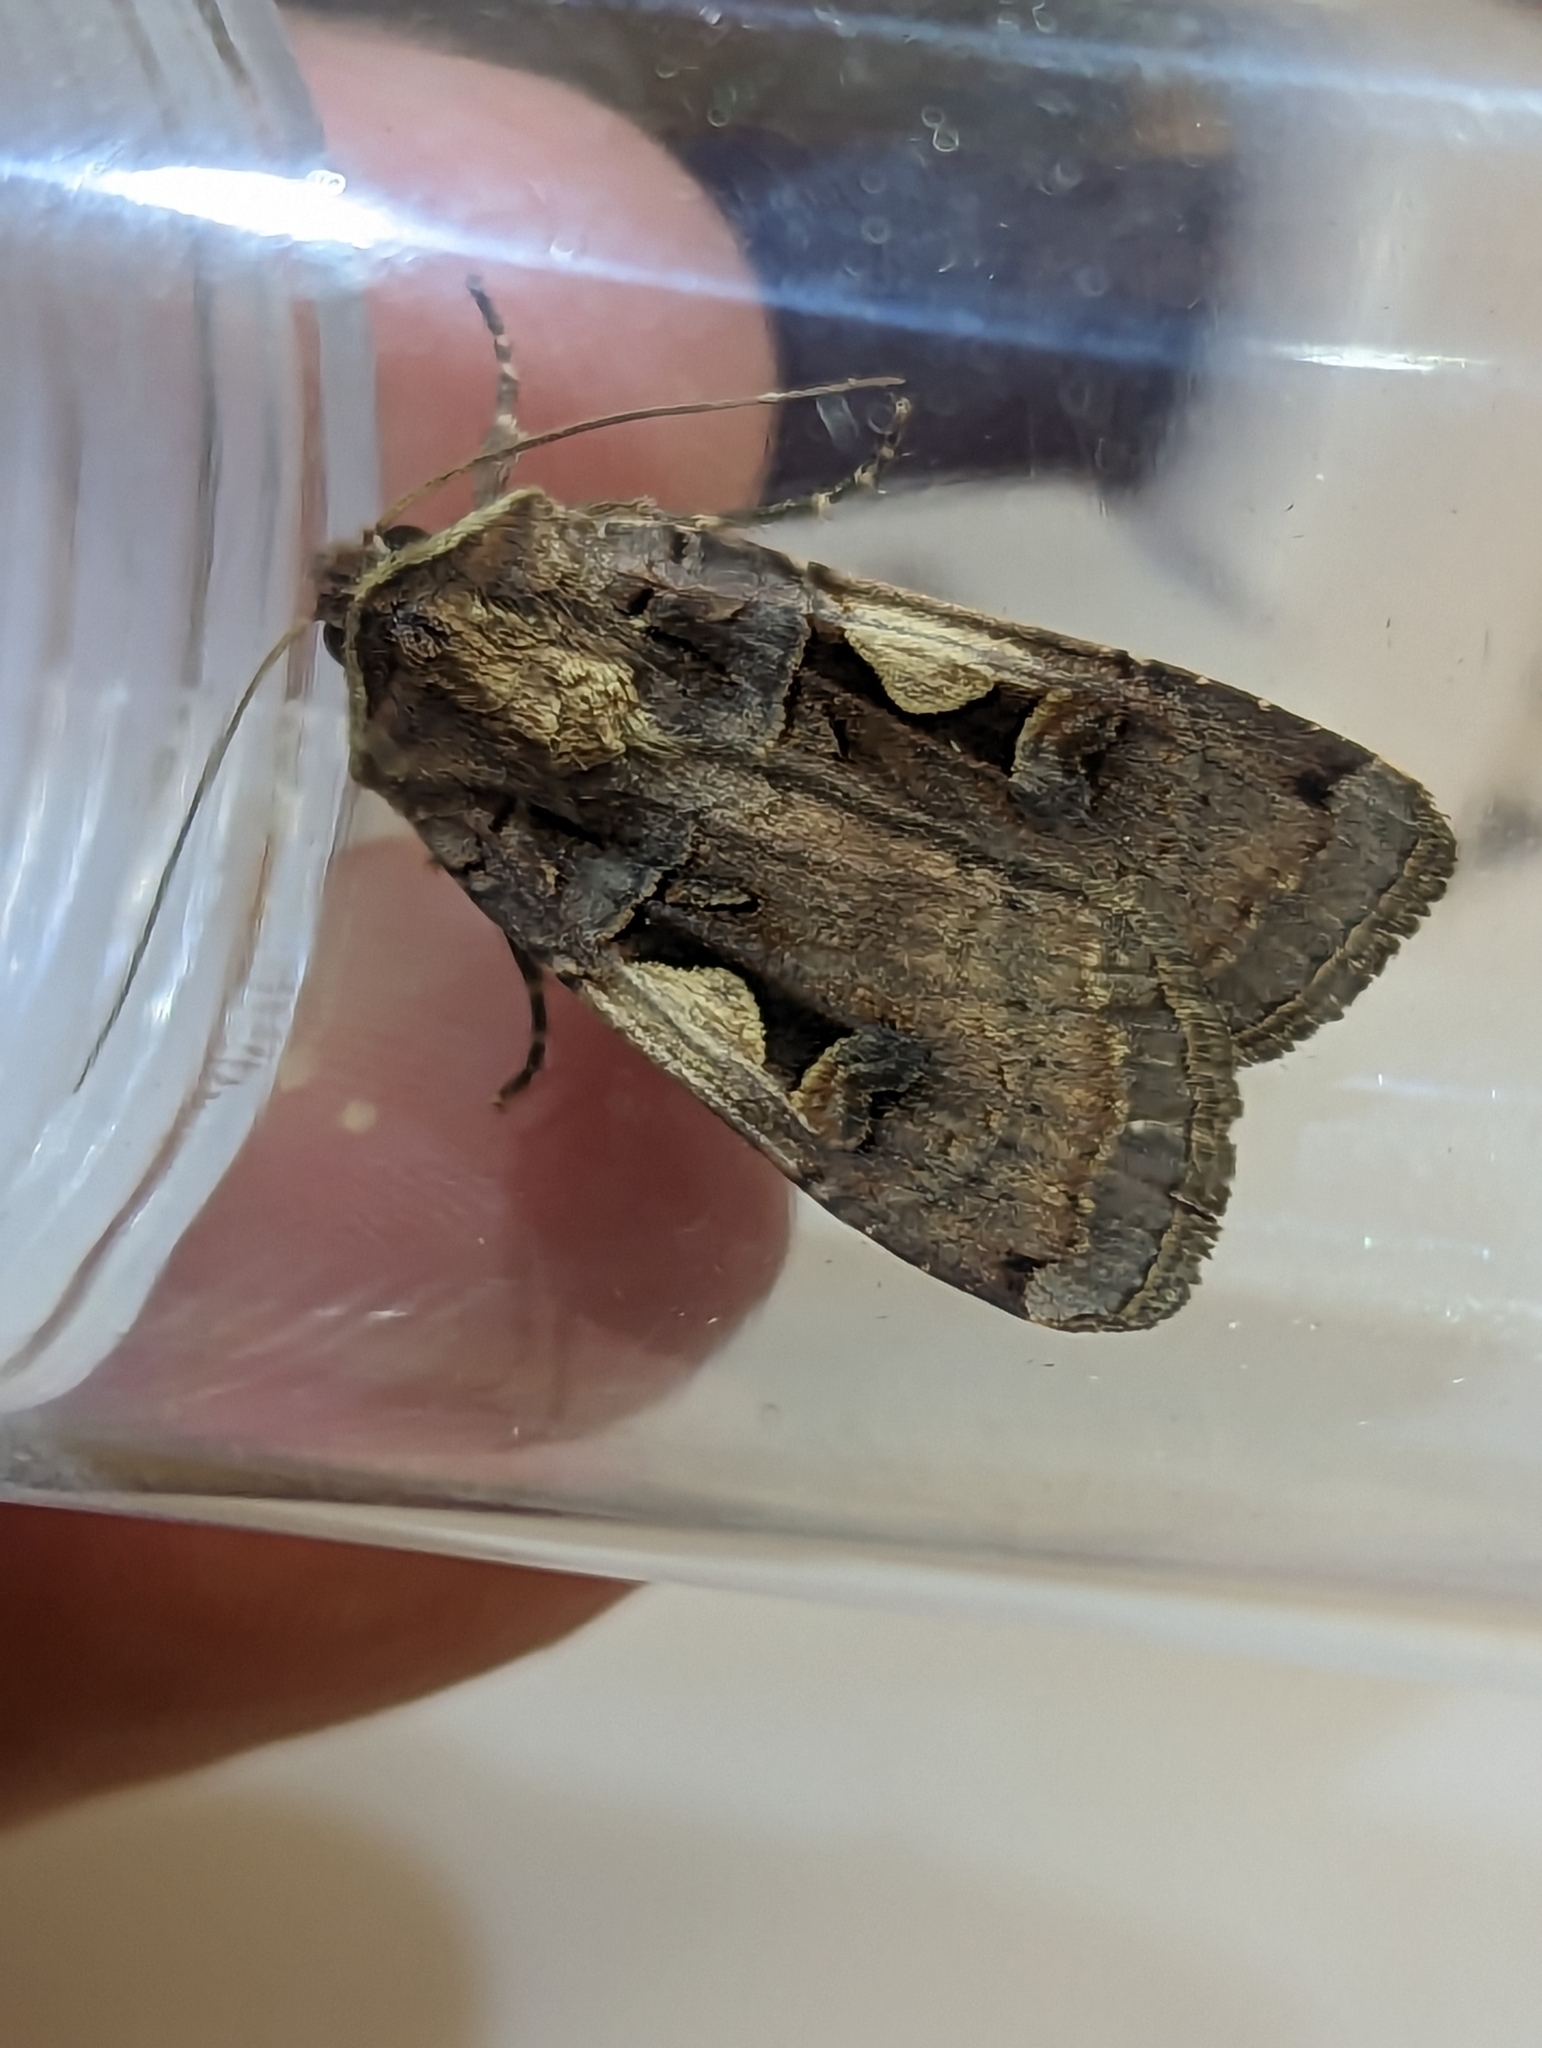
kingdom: Animalia
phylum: Arthropoda
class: Insecta
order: Lepidoptera
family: Noctuidae
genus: Xestia
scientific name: Xestia c-nigrum
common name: Setaceous hebrew character
